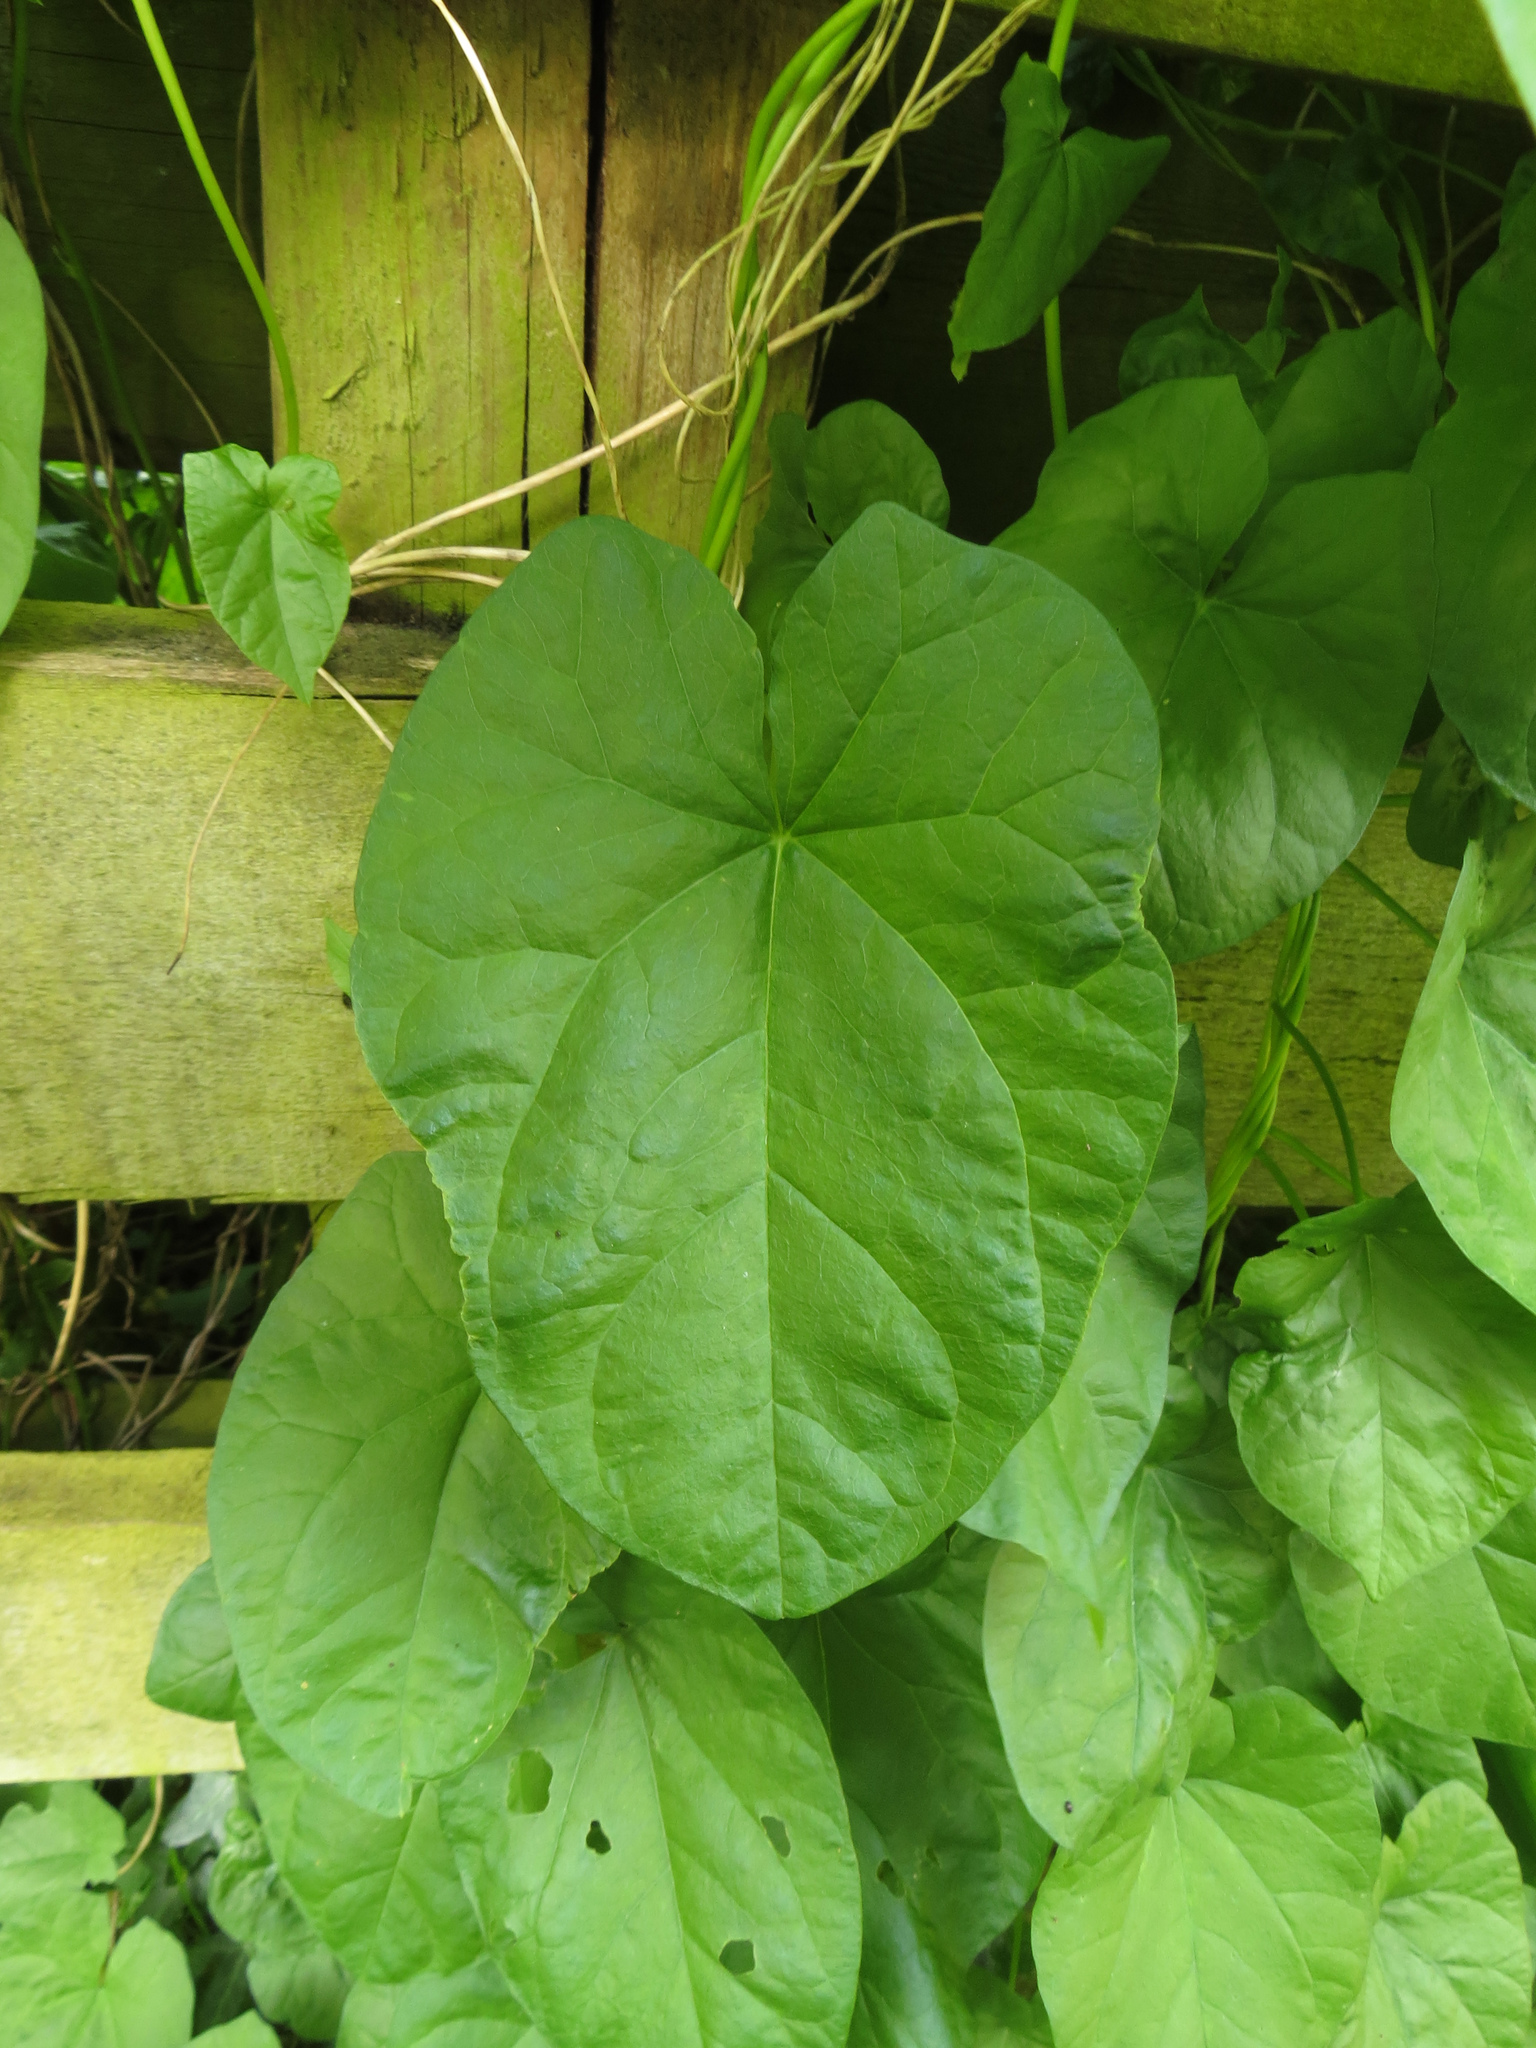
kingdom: Plantae
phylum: Tracheophyta
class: Magnoliopsida
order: Solanales
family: Convolvulaceae
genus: Calystegia
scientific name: Calystegia sepium
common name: Hedge bindweed
